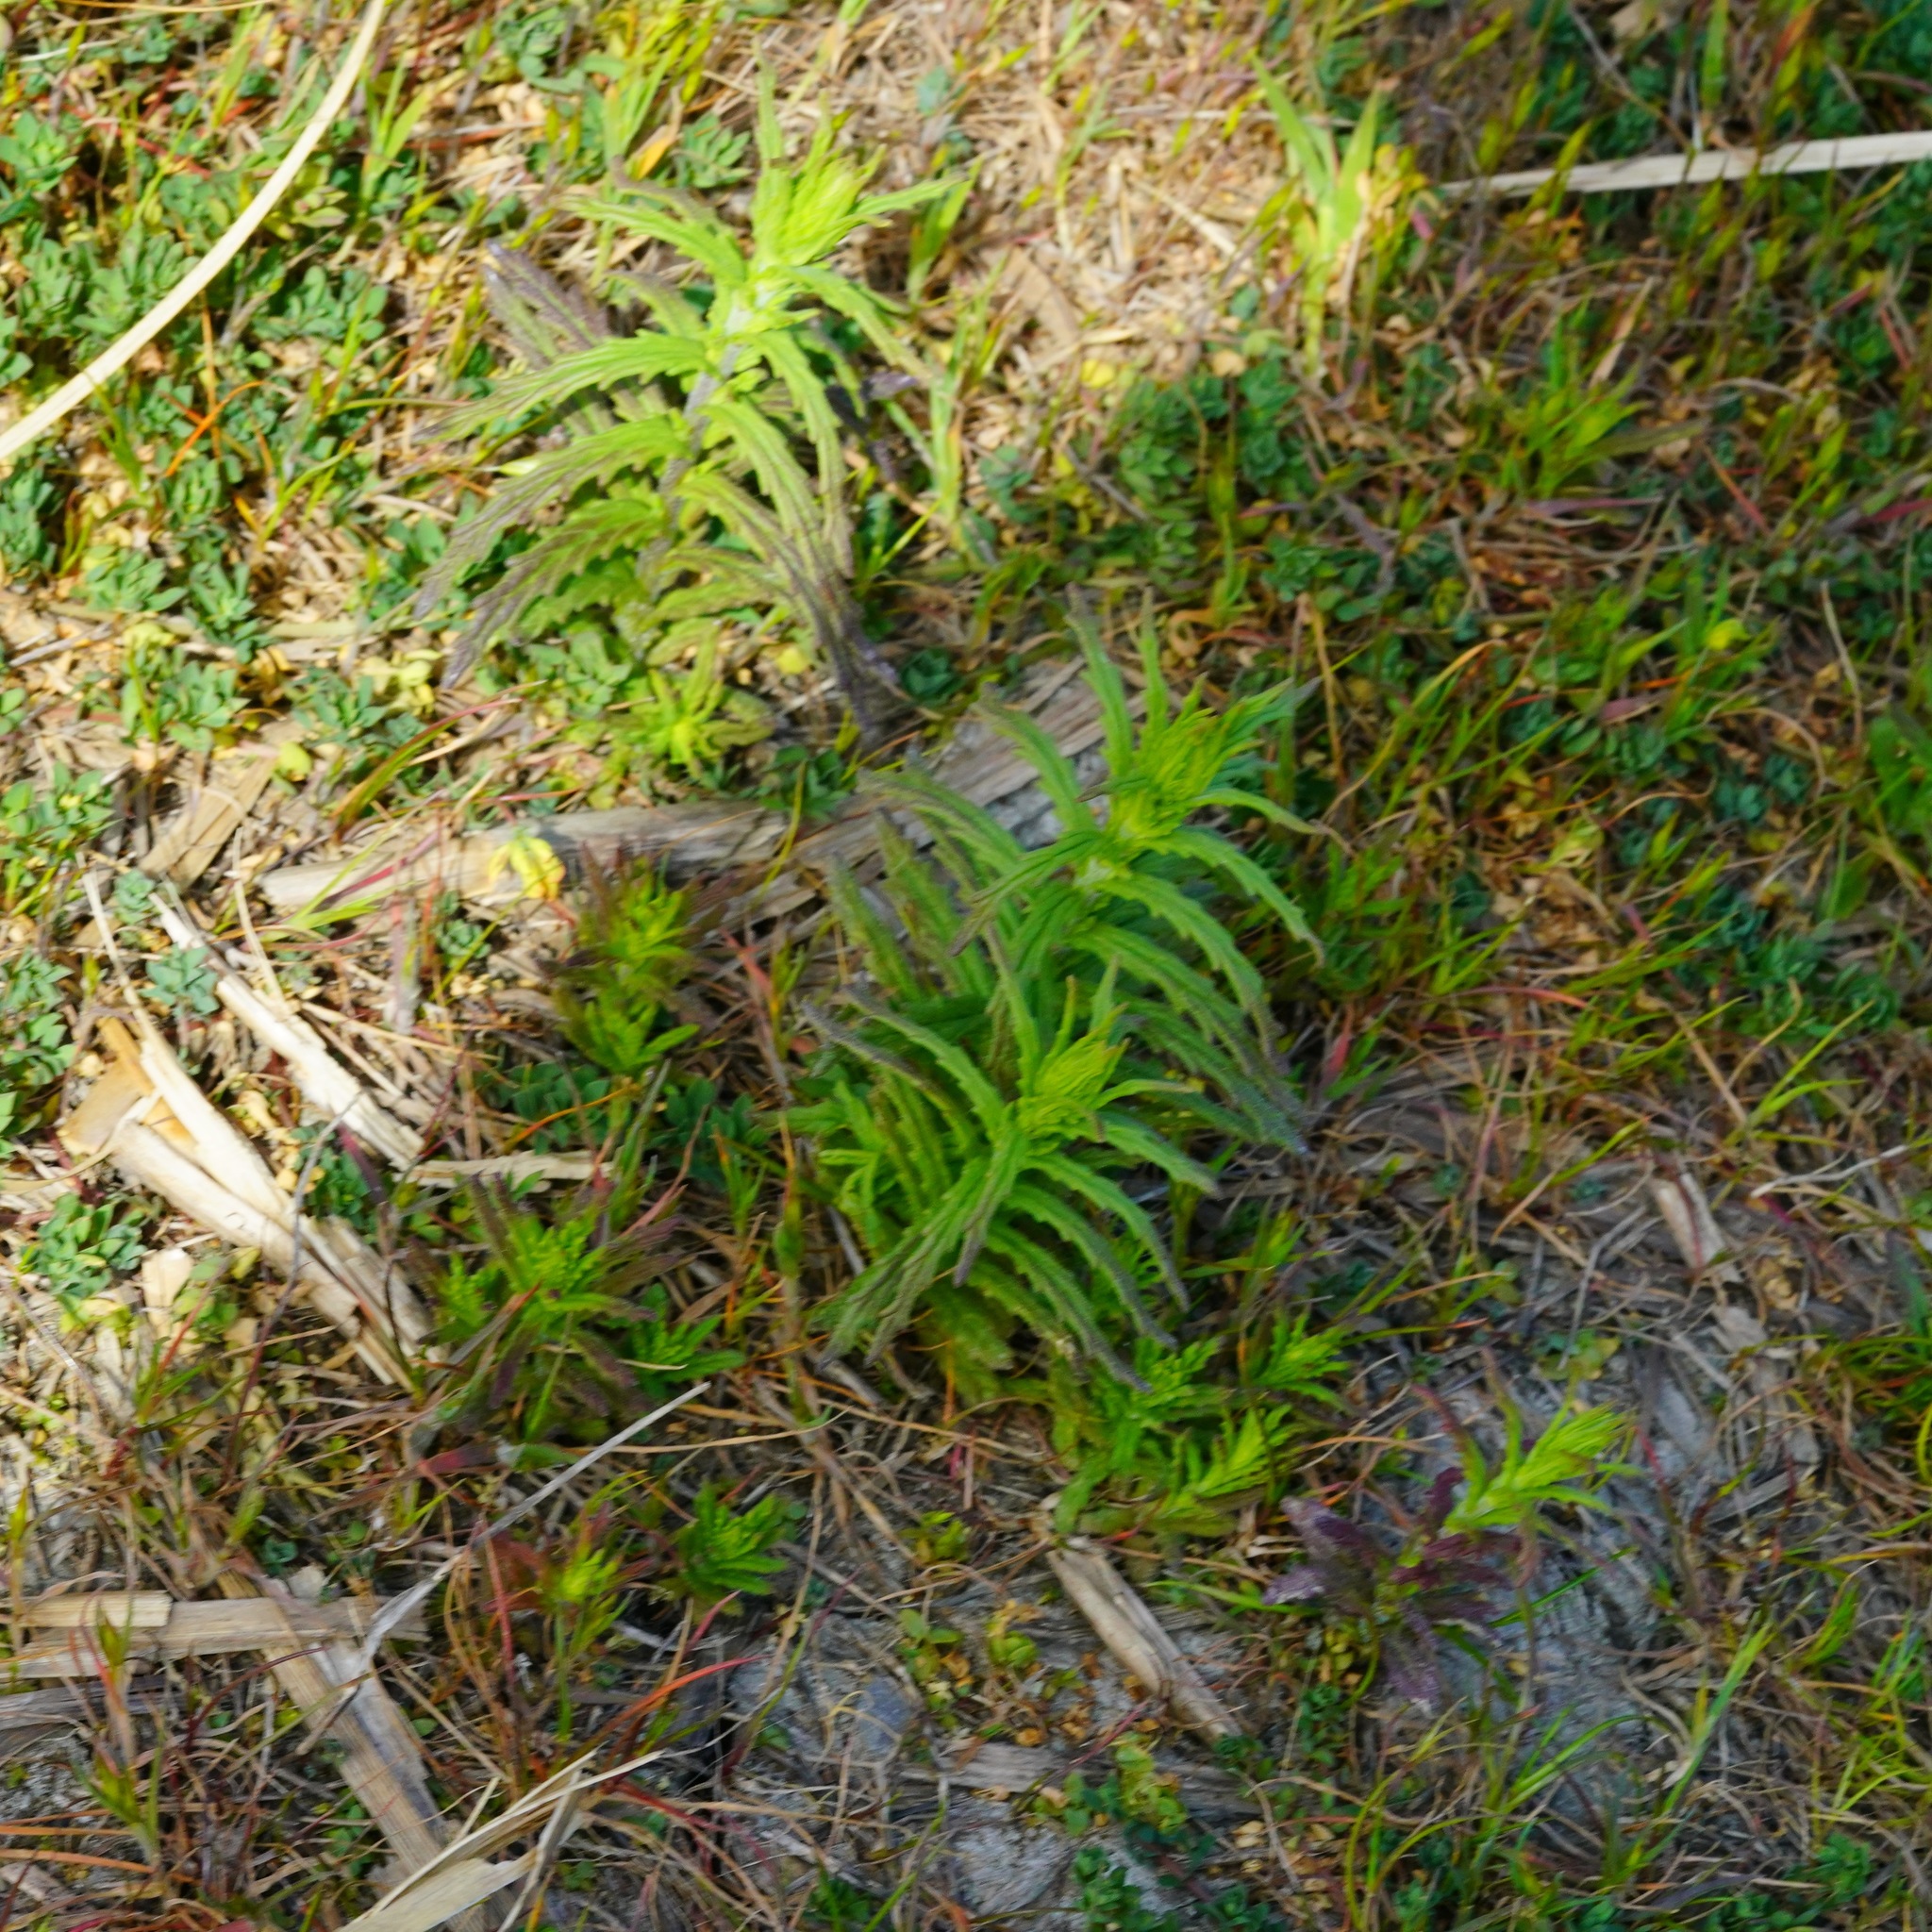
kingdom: Plantae
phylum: Tracheophyta
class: Magnoliopsida
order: Lamiales
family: Orobanchaceae
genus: Bellardia
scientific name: Bellardia trixago
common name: Mediterranean lineseed
